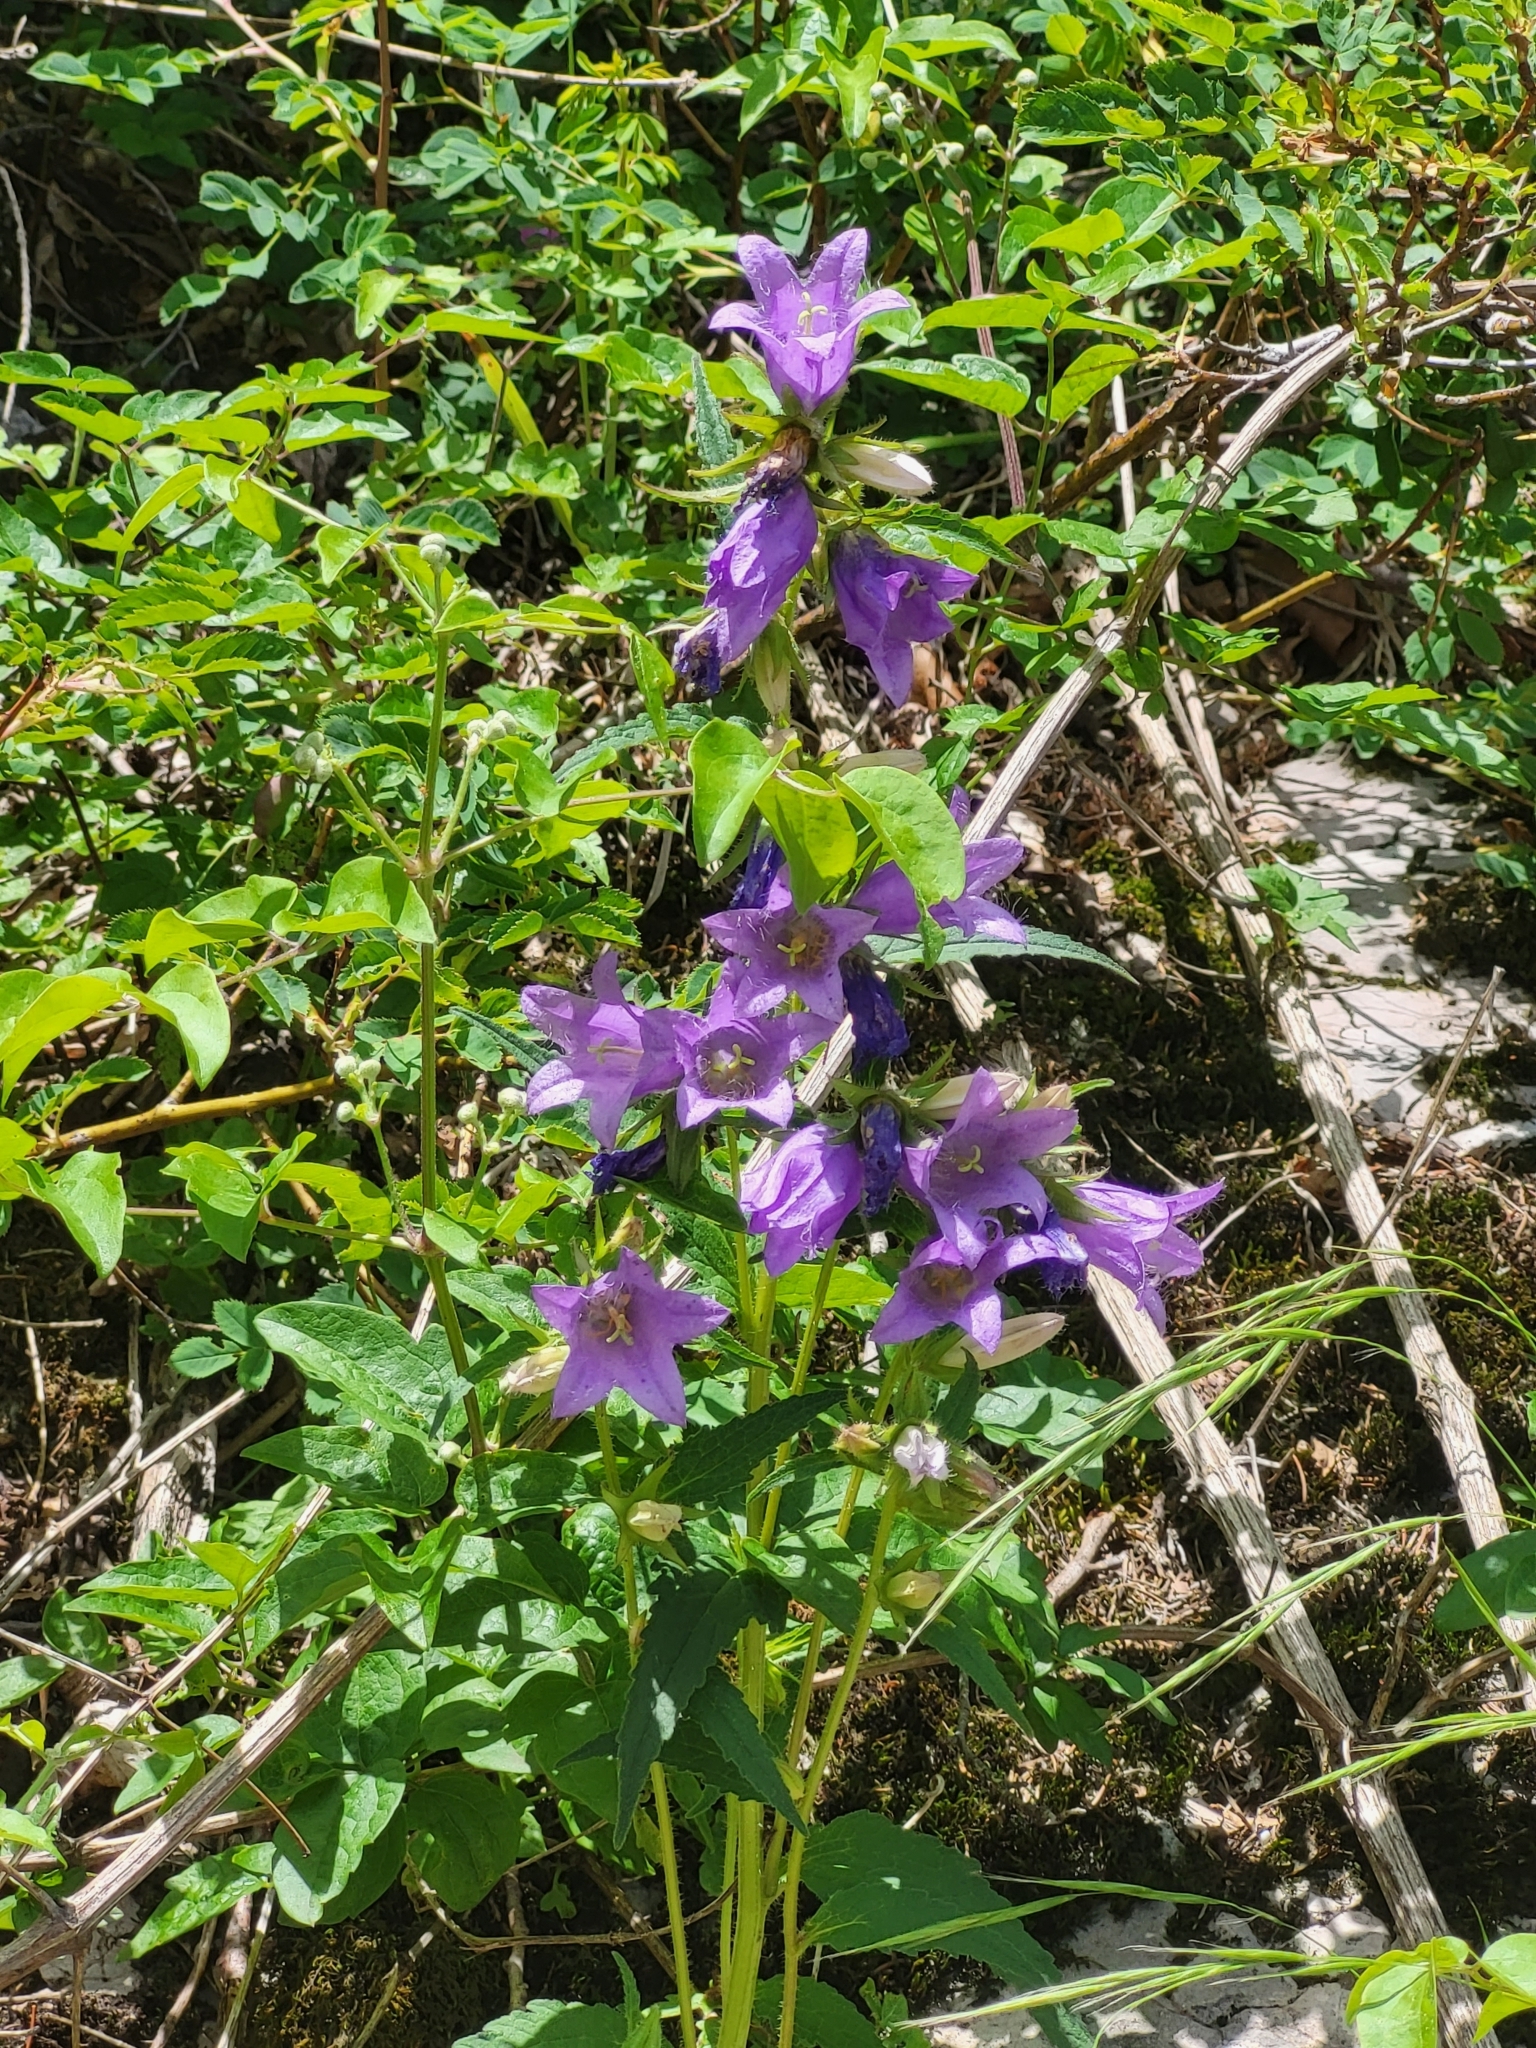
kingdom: Plantae
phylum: Tracheophyta
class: Magnoliopsida
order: Asterales
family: Campanulaceae
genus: Campanula
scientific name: Campanula trachelium
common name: Nettle-leaved bellflower
